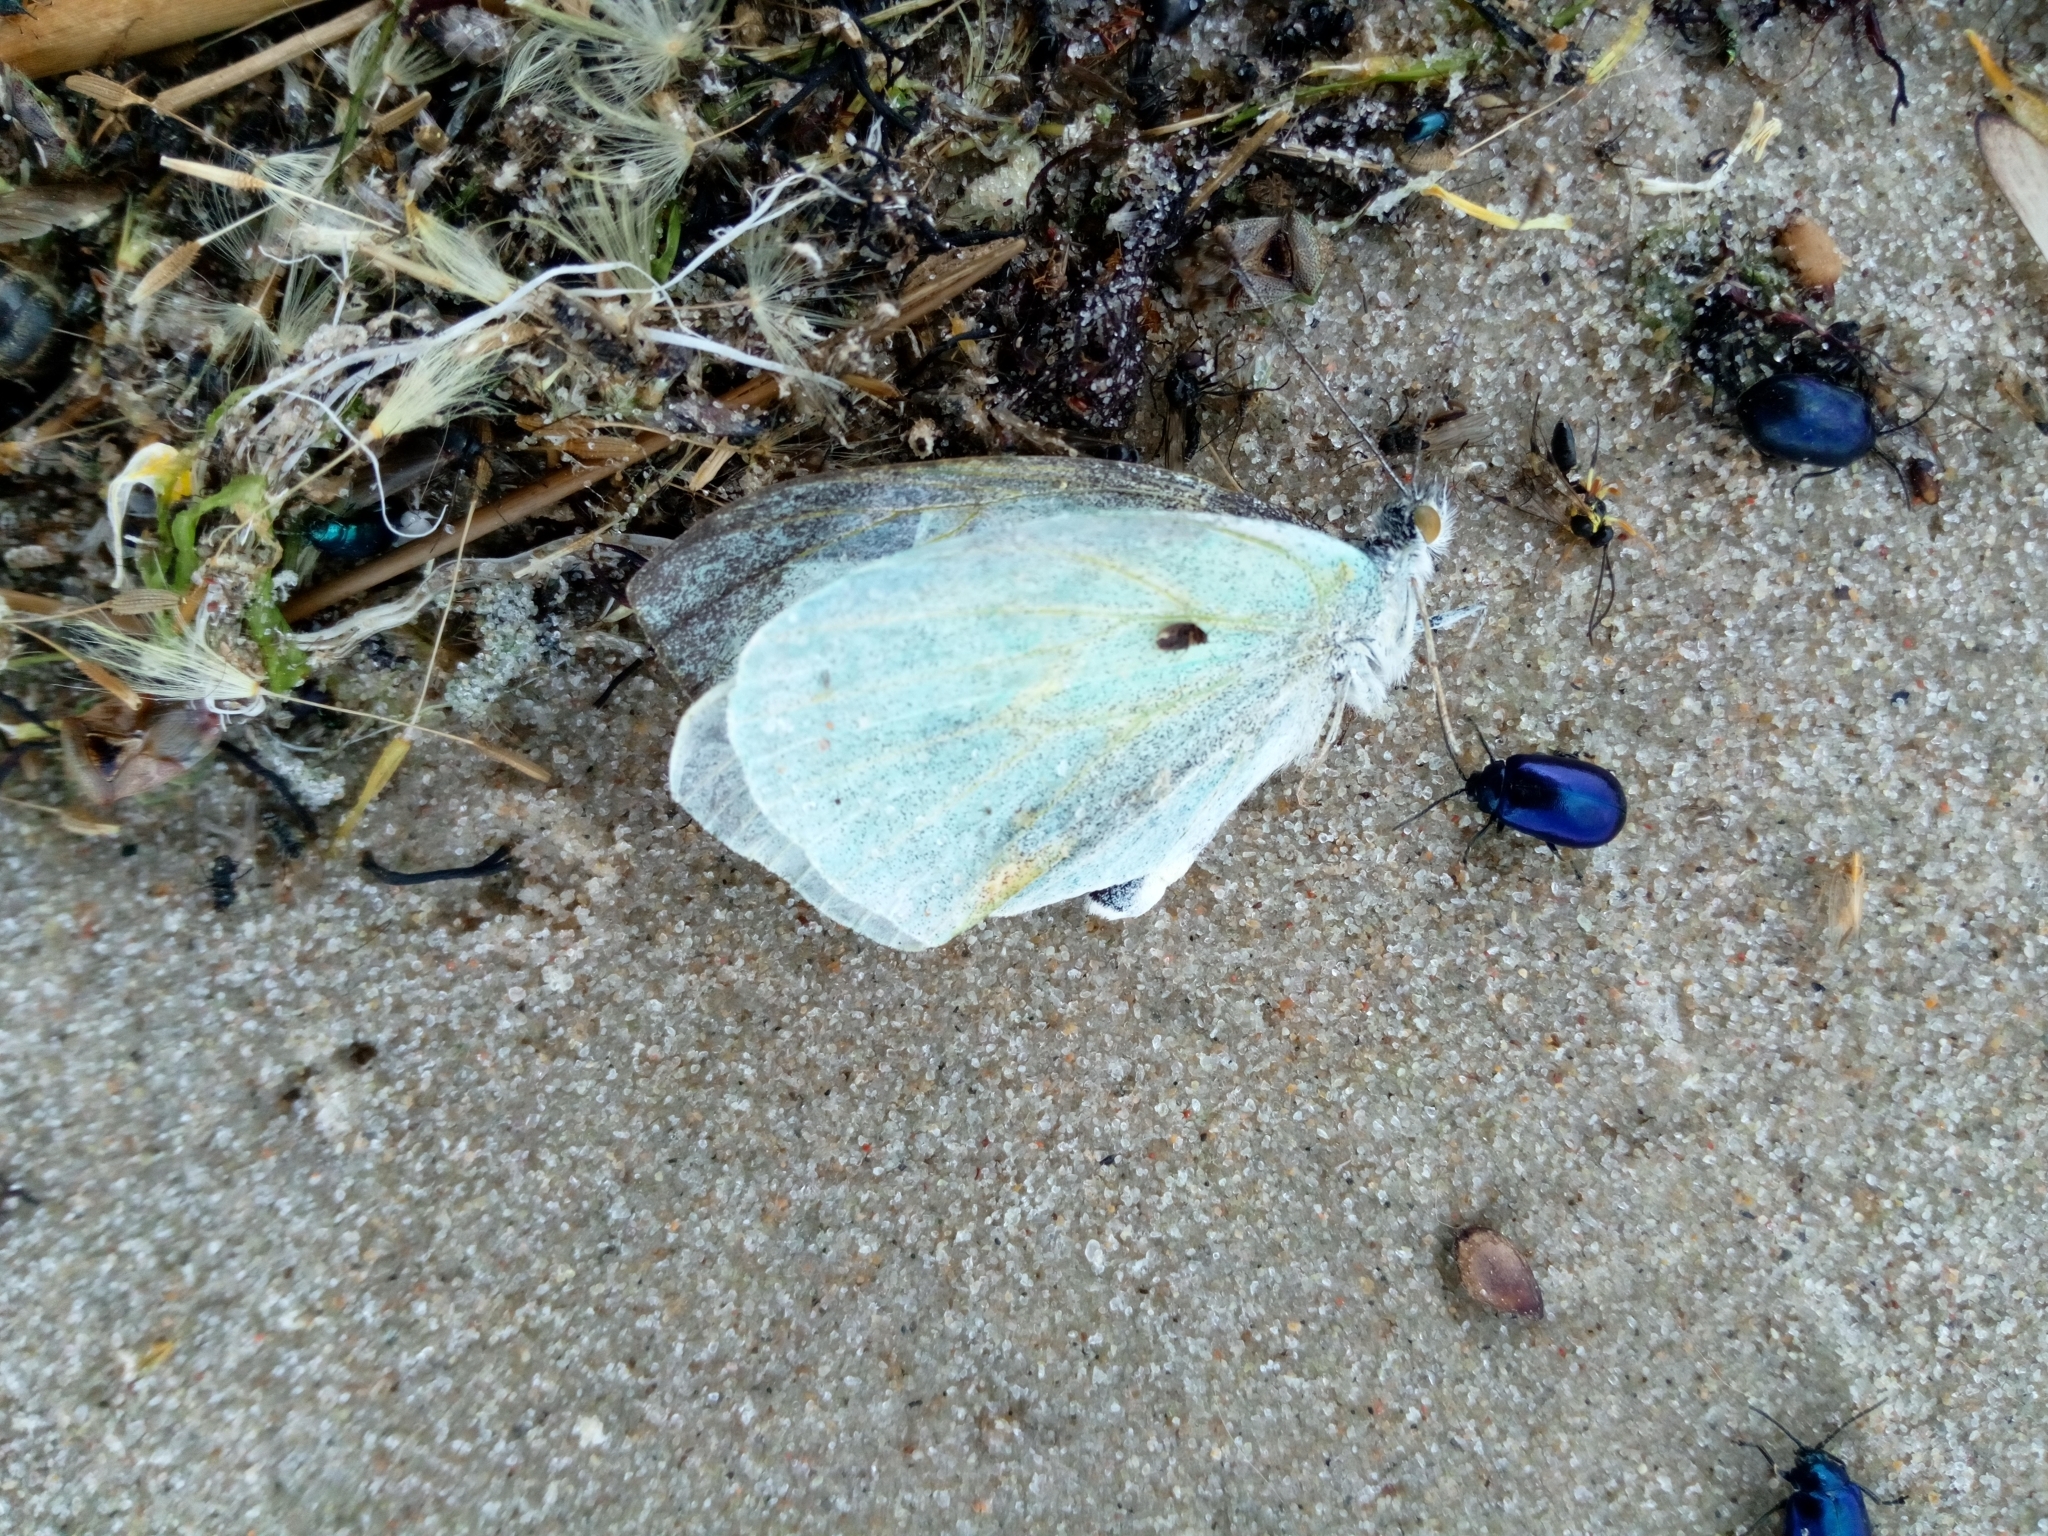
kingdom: Animalia
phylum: Arthropoda
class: Insecta
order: Lepidoptera
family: Pieridae
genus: Pieris
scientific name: Pieris brassicae
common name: Large white
